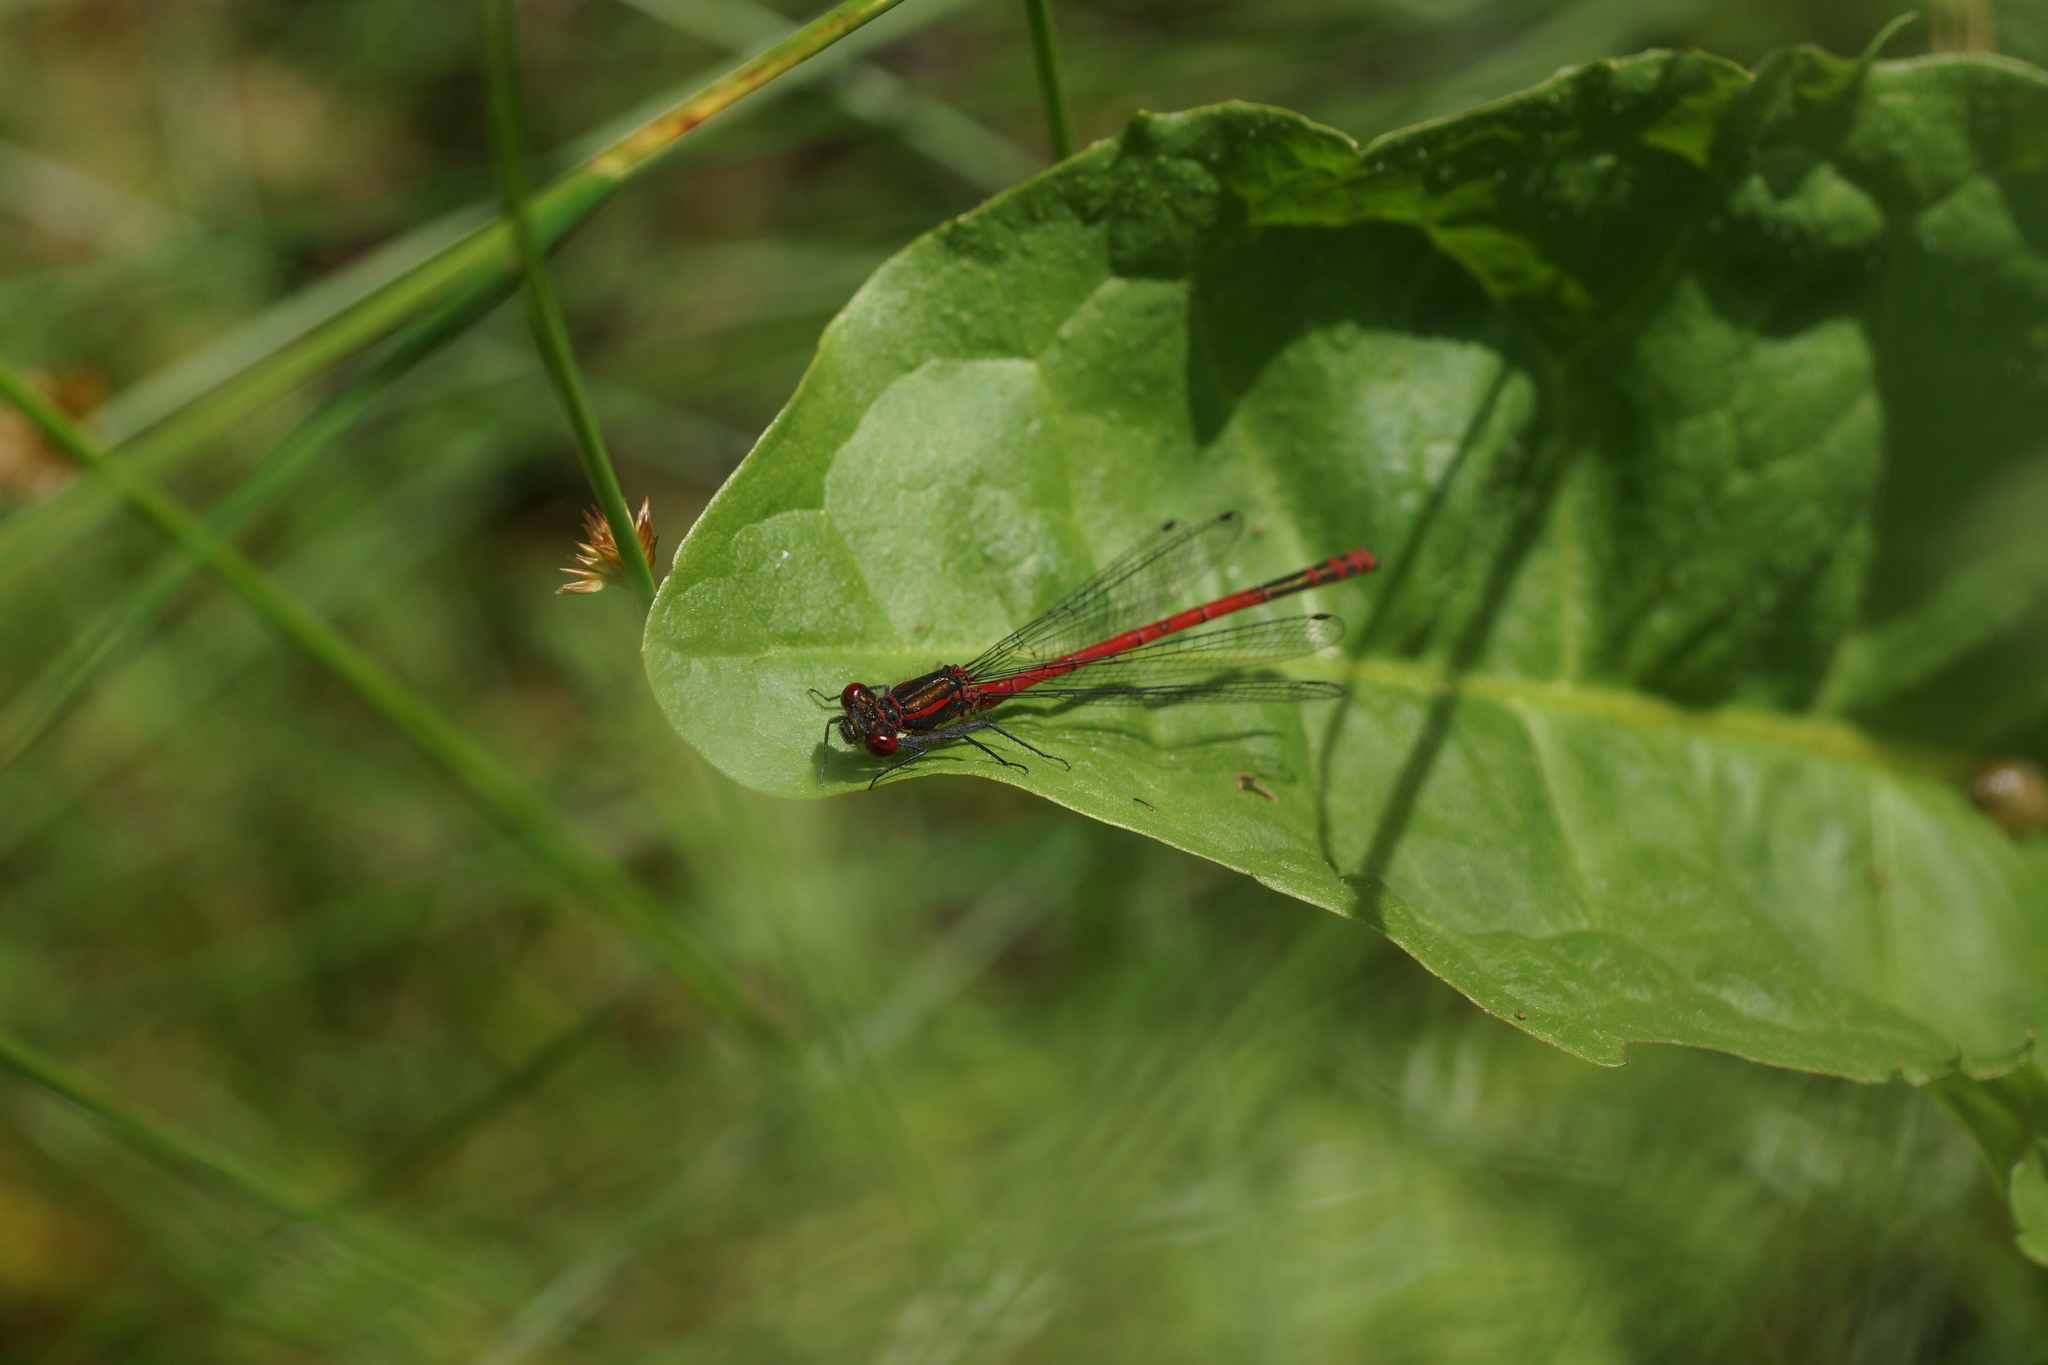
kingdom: Animalia
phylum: Arthropoda
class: Insecta
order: Odonata
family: Coenagrionidae
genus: Pyrrhosoma
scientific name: Pyrrhosoma nymphula
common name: Large red damsel
